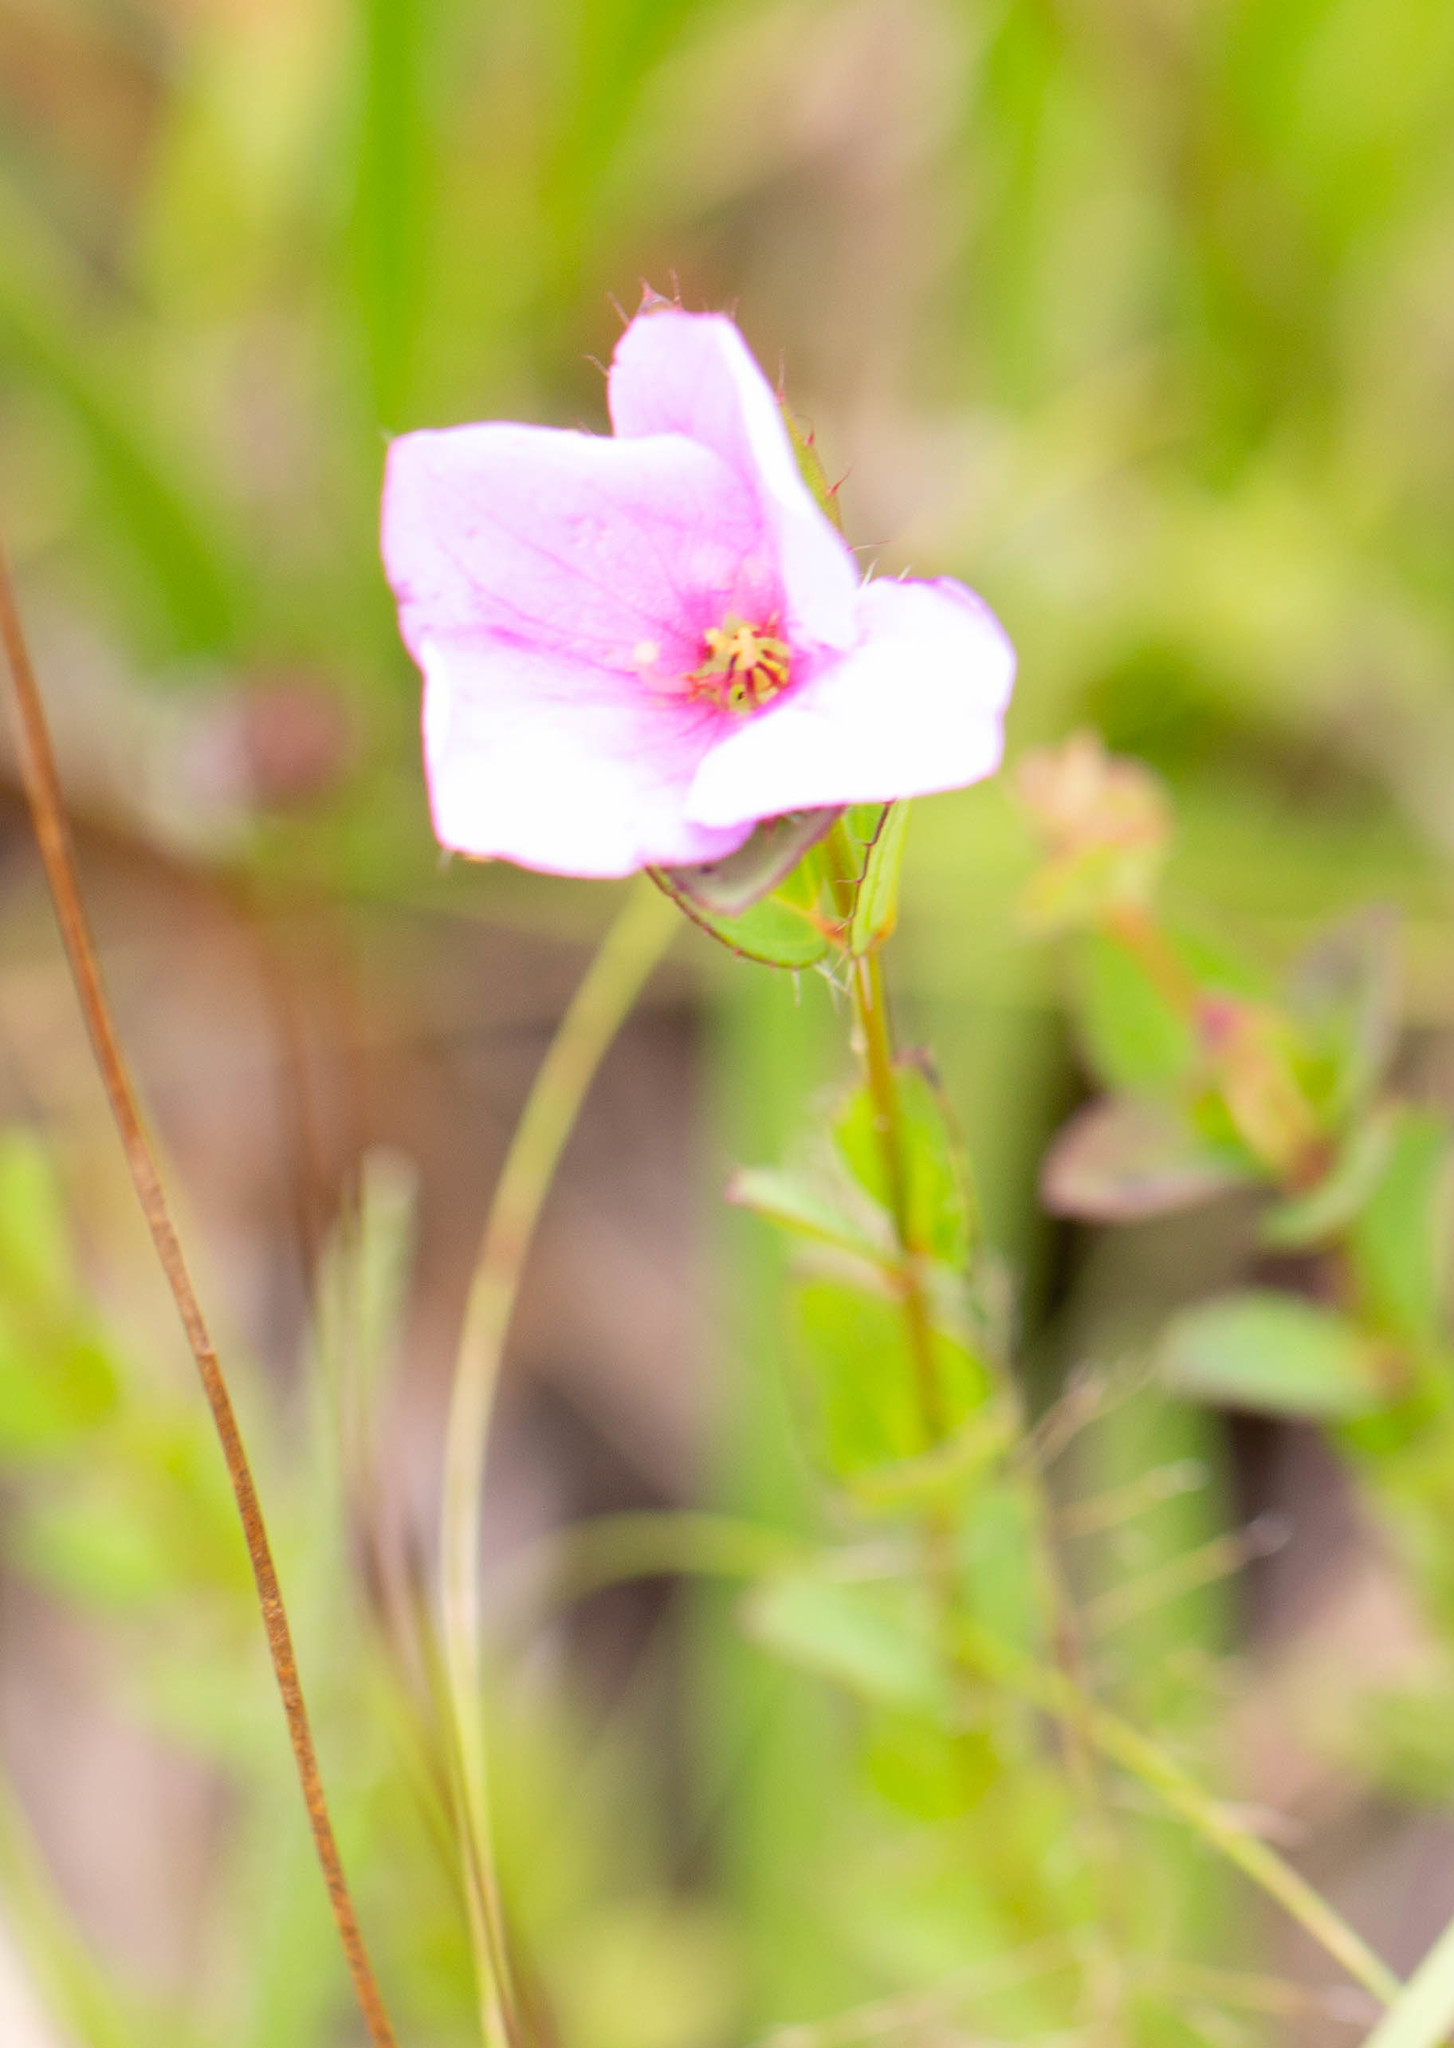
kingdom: Plantae
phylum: Tracheophyta
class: Magnoliopsida
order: Myrtales
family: Melastomataceae
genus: Rhexia
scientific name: Rhexia petiolata
